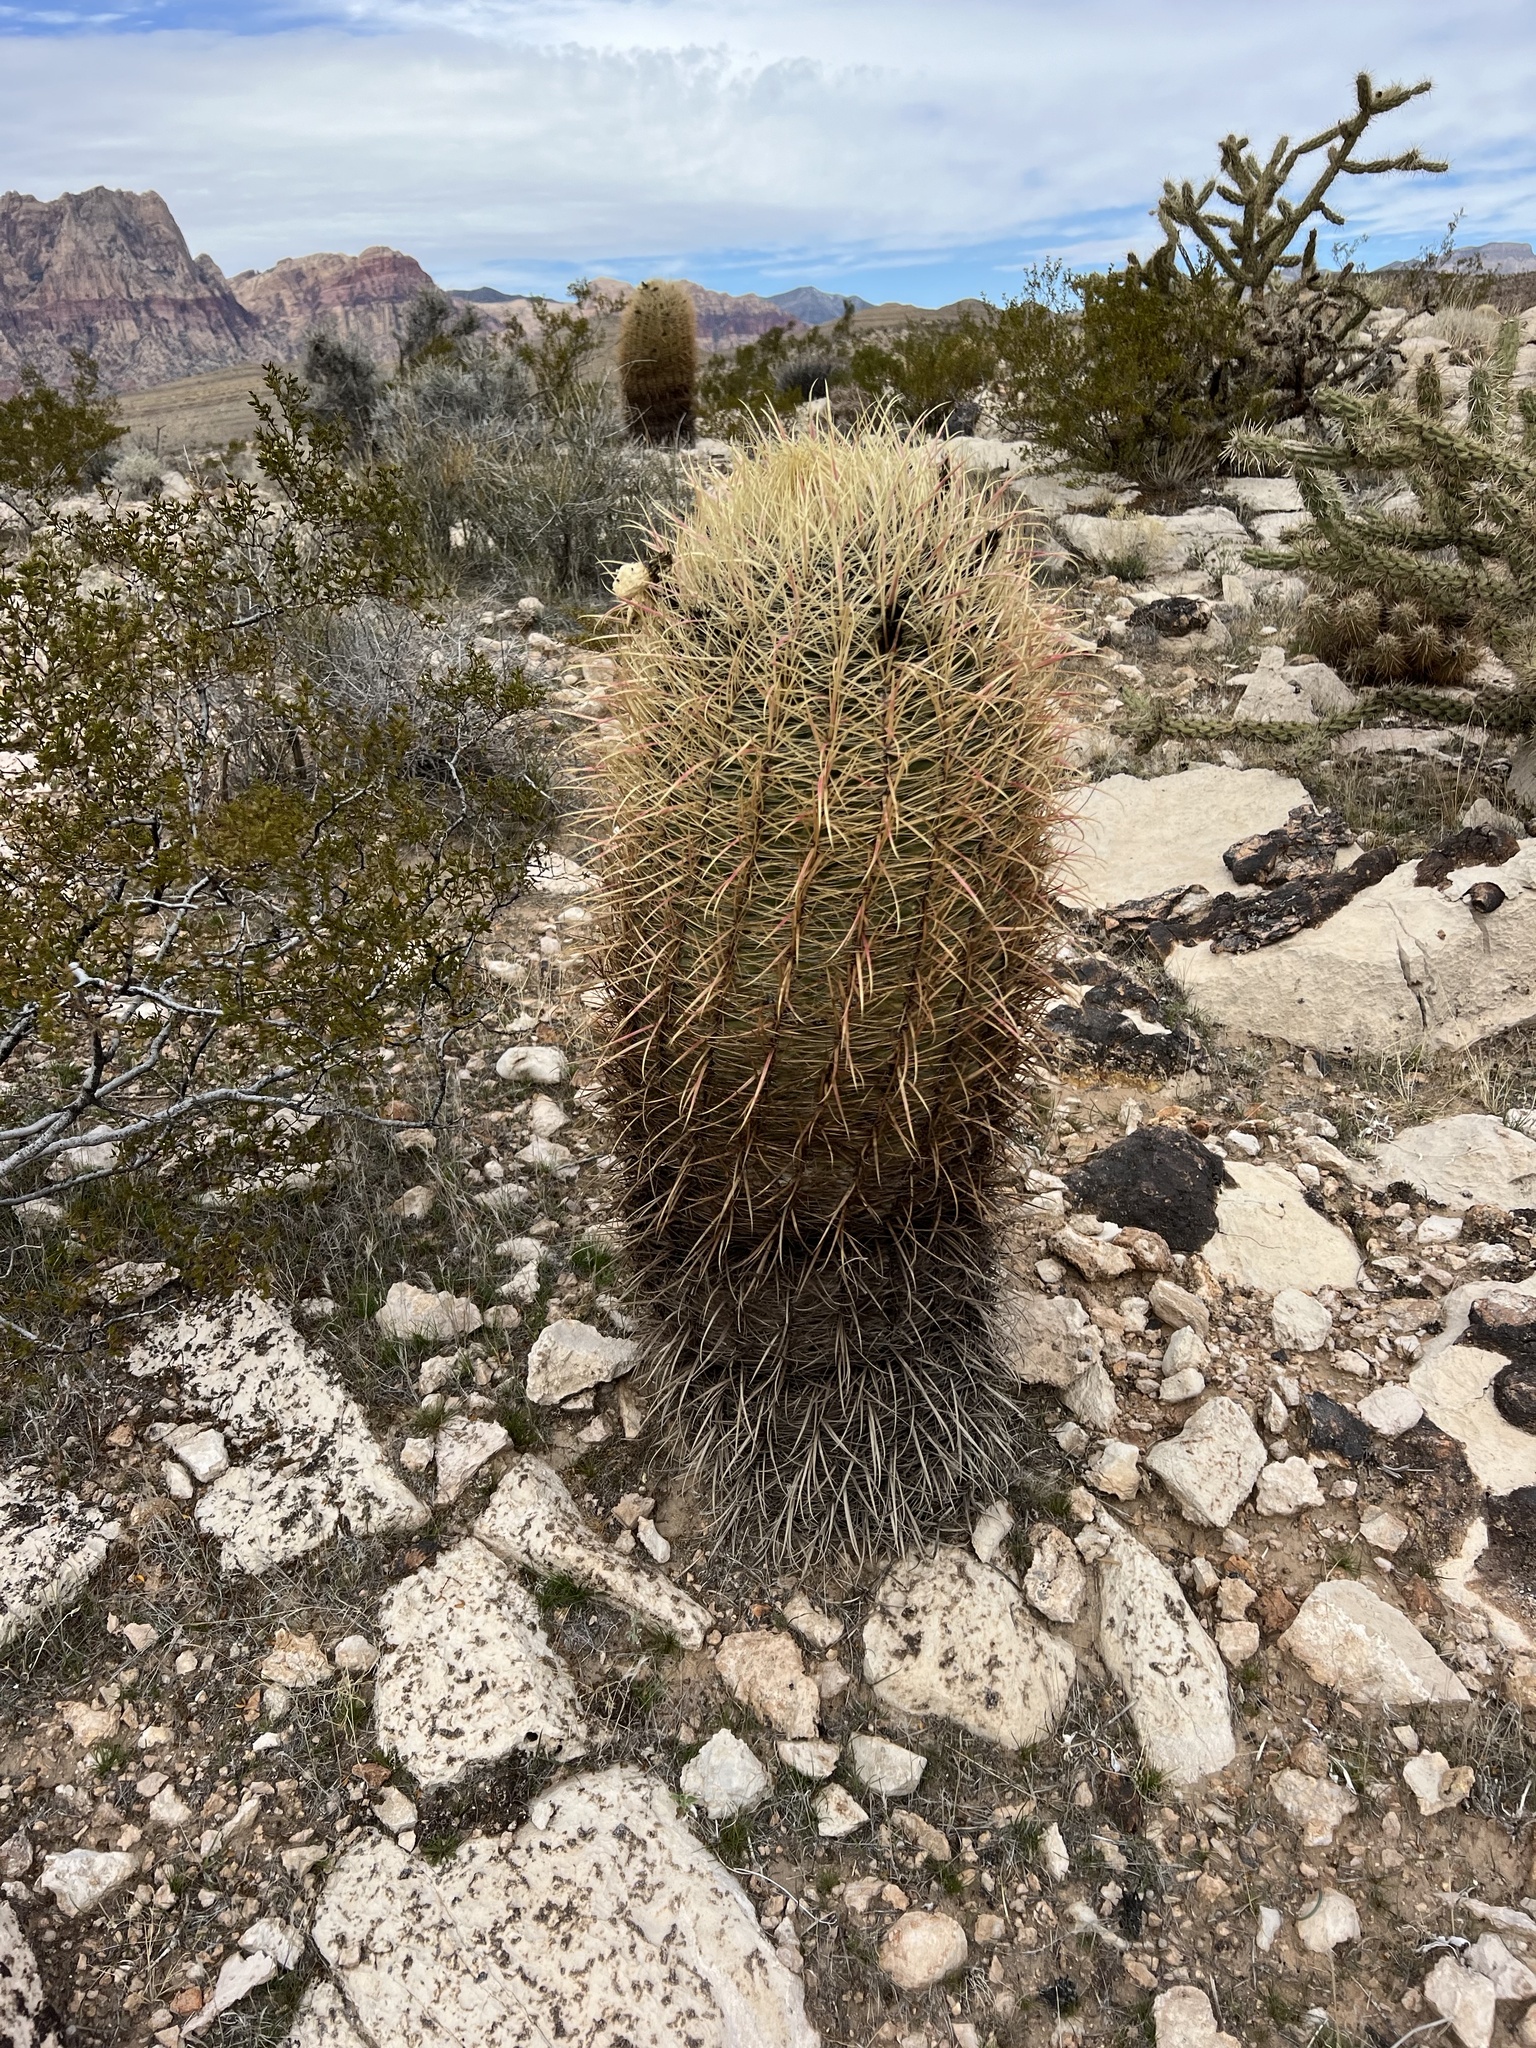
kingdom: Plantae
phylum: Tracheophyta
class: Magnoliopsida
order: Caryophyllales
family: Cactaceae
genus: Ferocactus
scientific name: Ferocactus cylindraceus
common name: California barrel cactus
